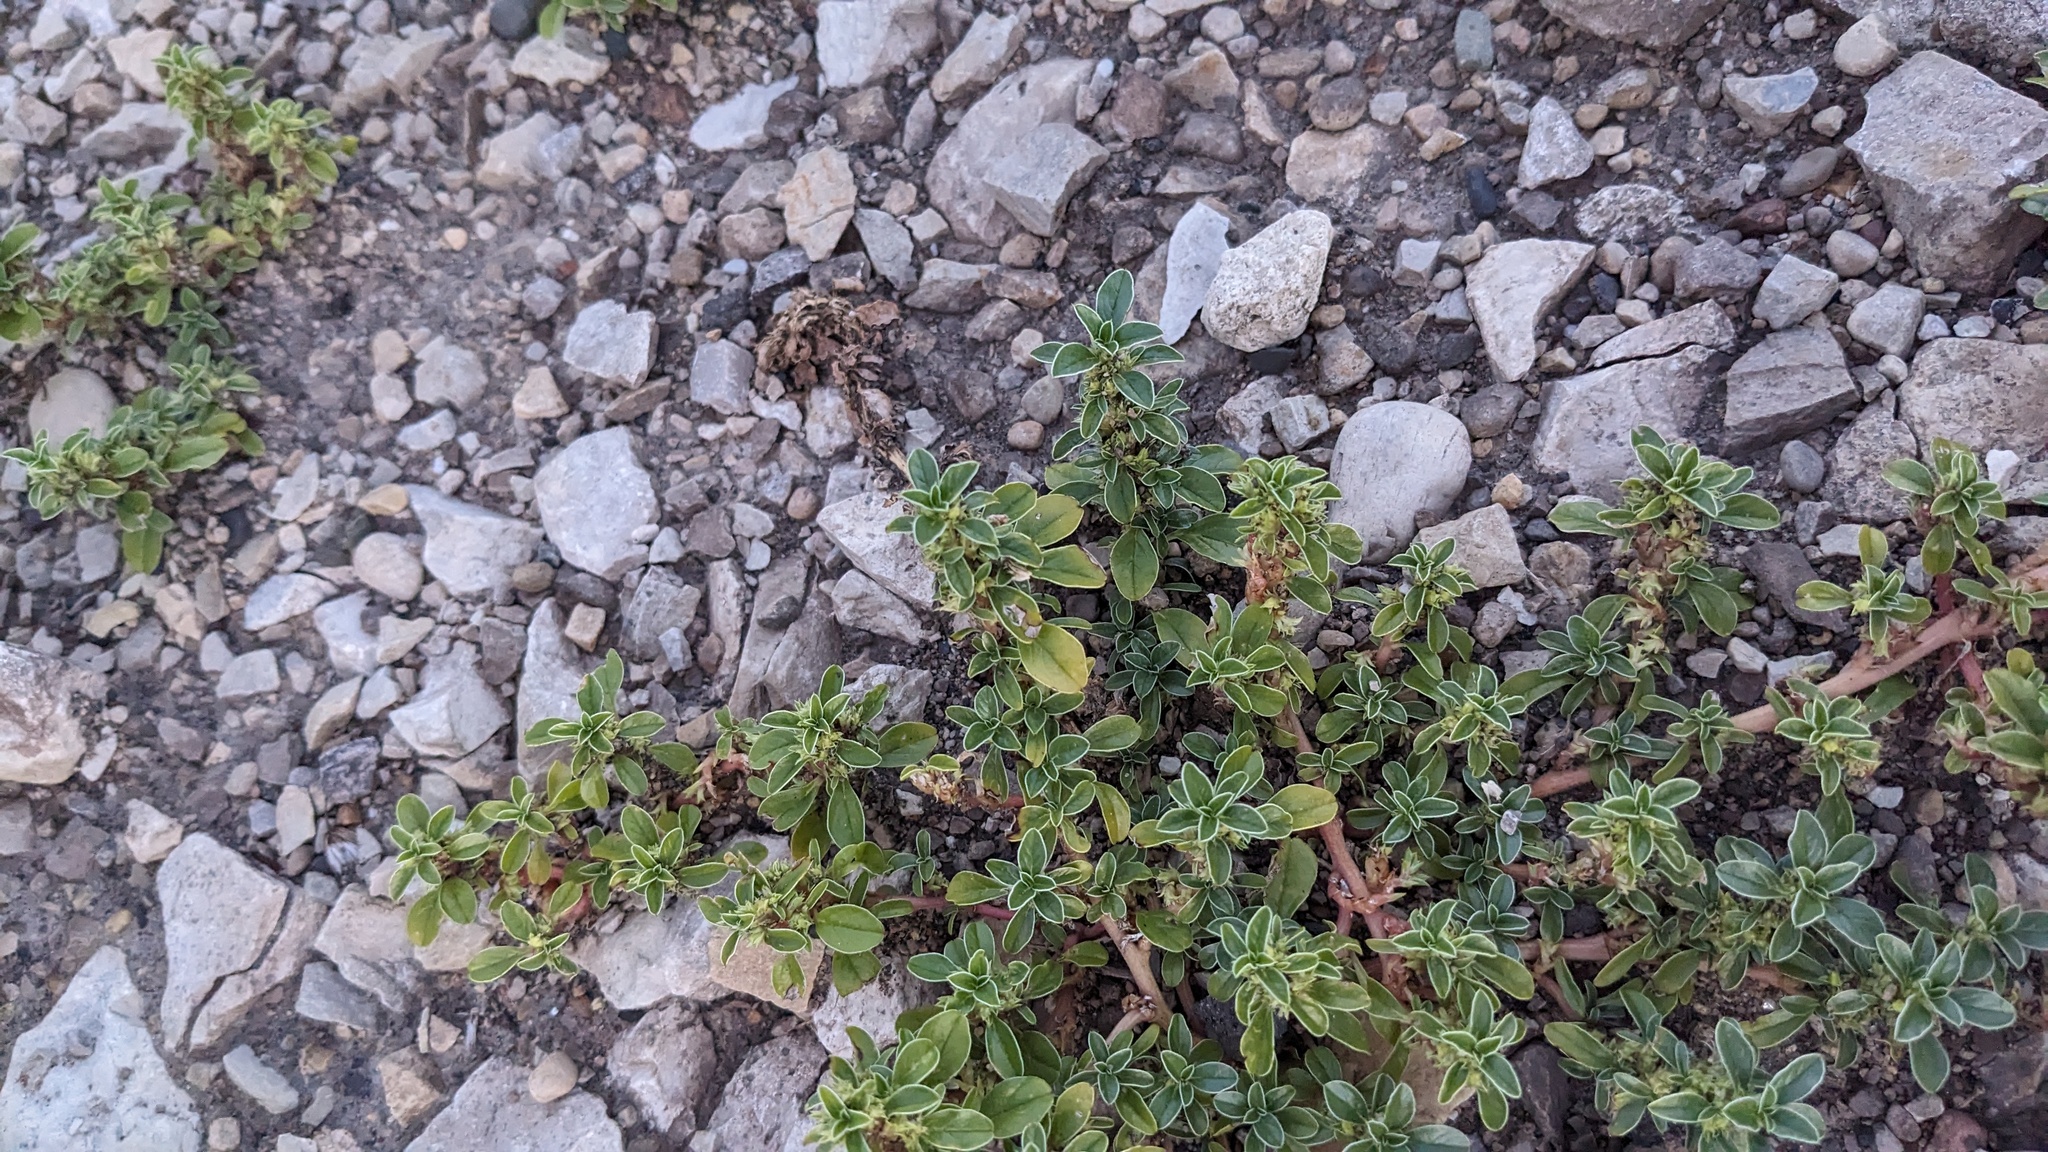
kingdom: Plantae
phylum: Tracheophyta
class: Magnoliopsida
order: Caryophyllales
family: Amaranthaceae
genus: Amaranthus
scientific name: Amaranthus blitoides
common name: Prostrate pigweed
